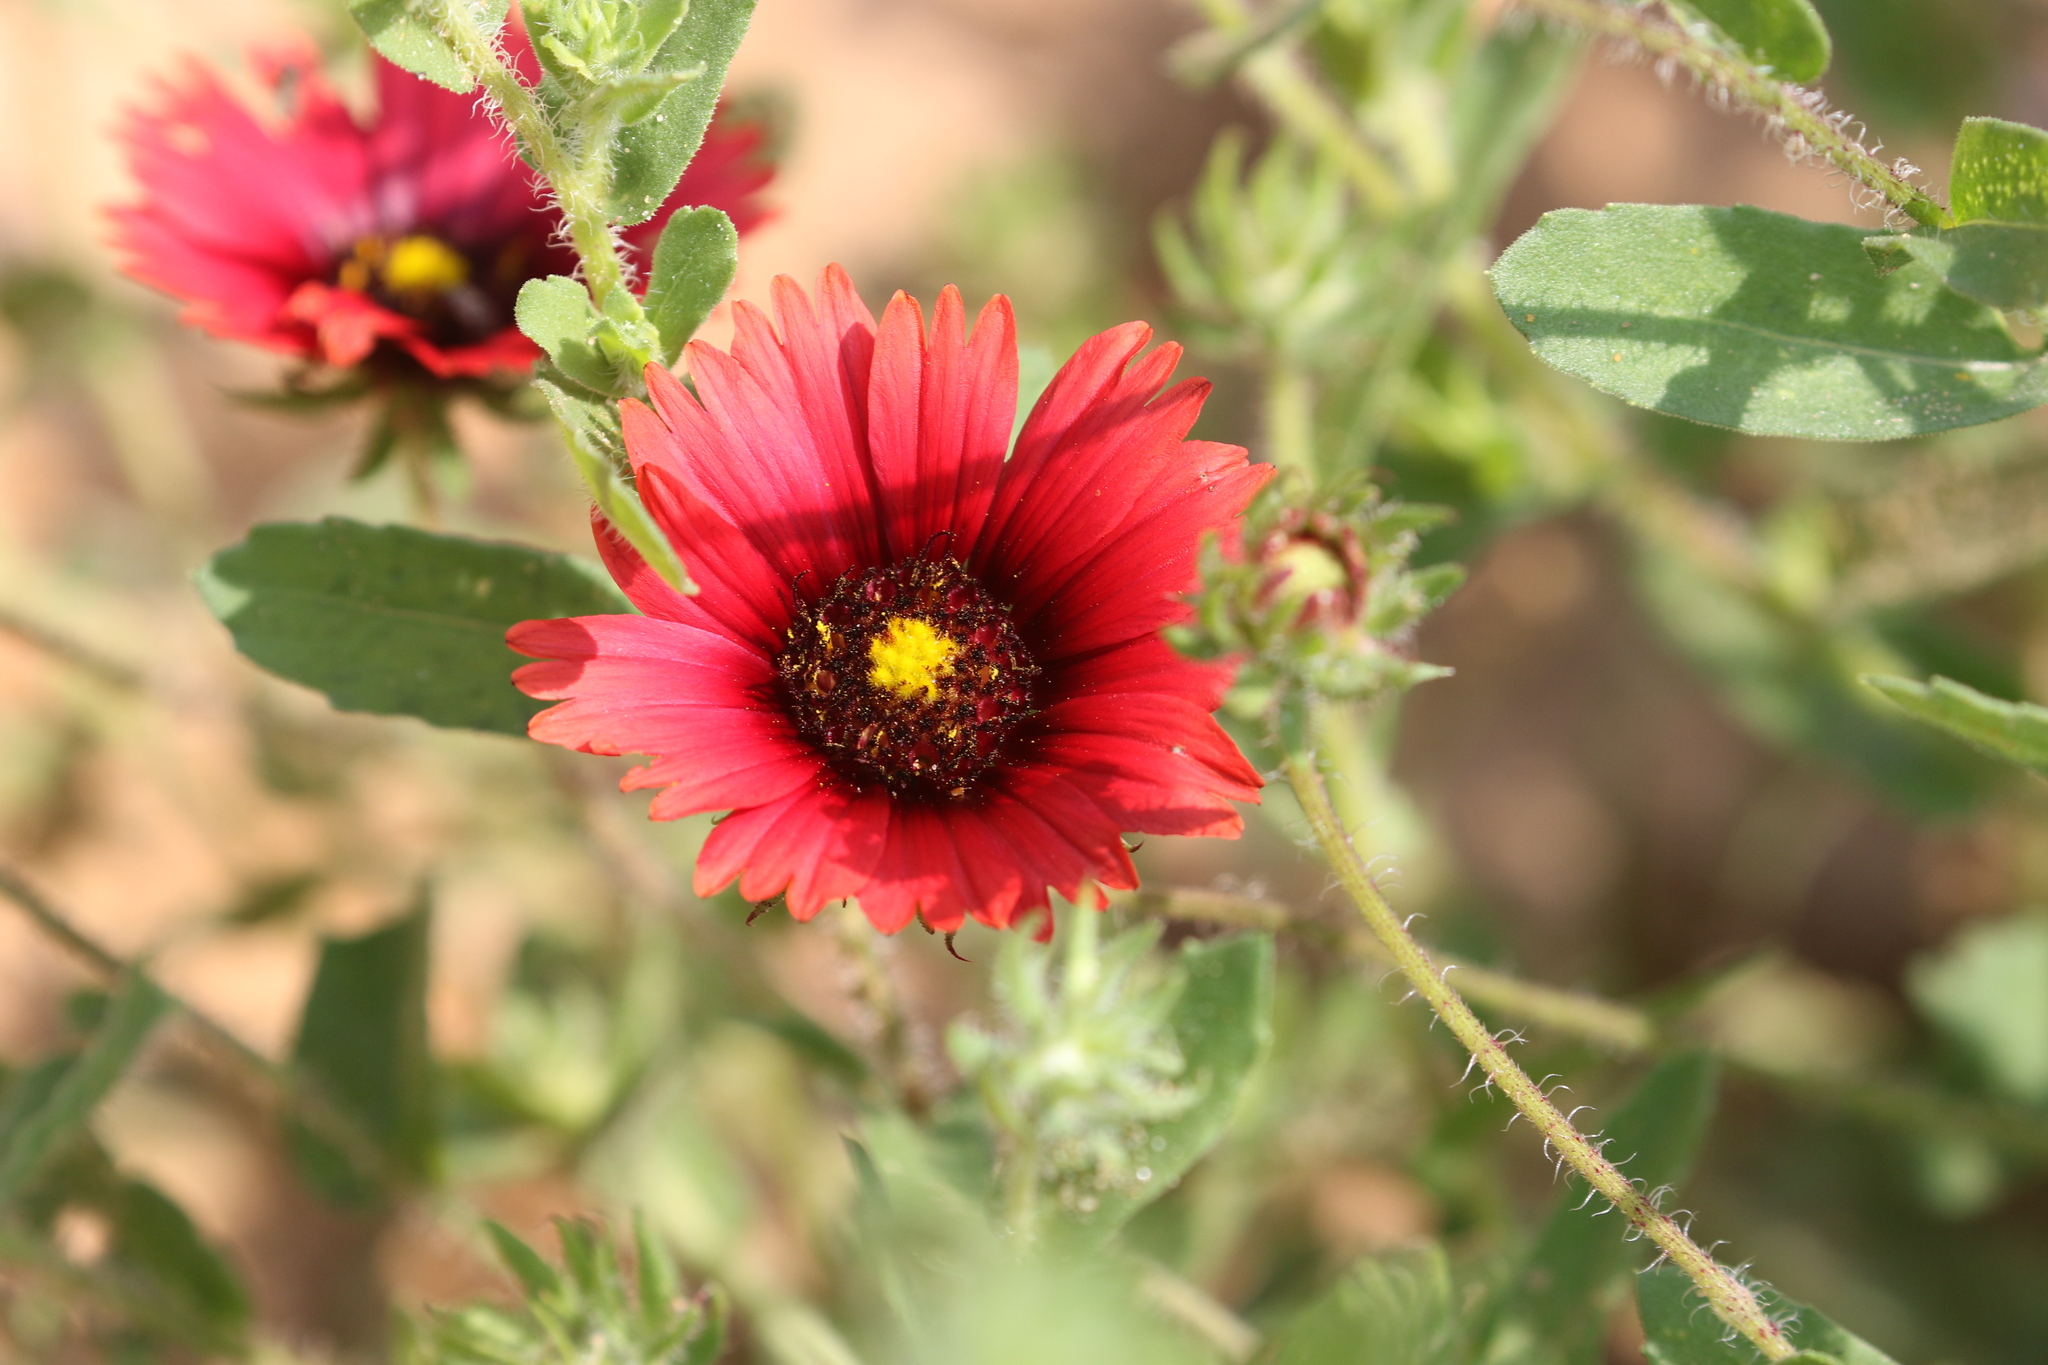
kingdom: Plantae
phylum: Tracheophyta
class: Magnoliopsida
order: Asterales
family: Asteraceae
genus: Gaillardia
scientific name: Gaillardia amblyodon
